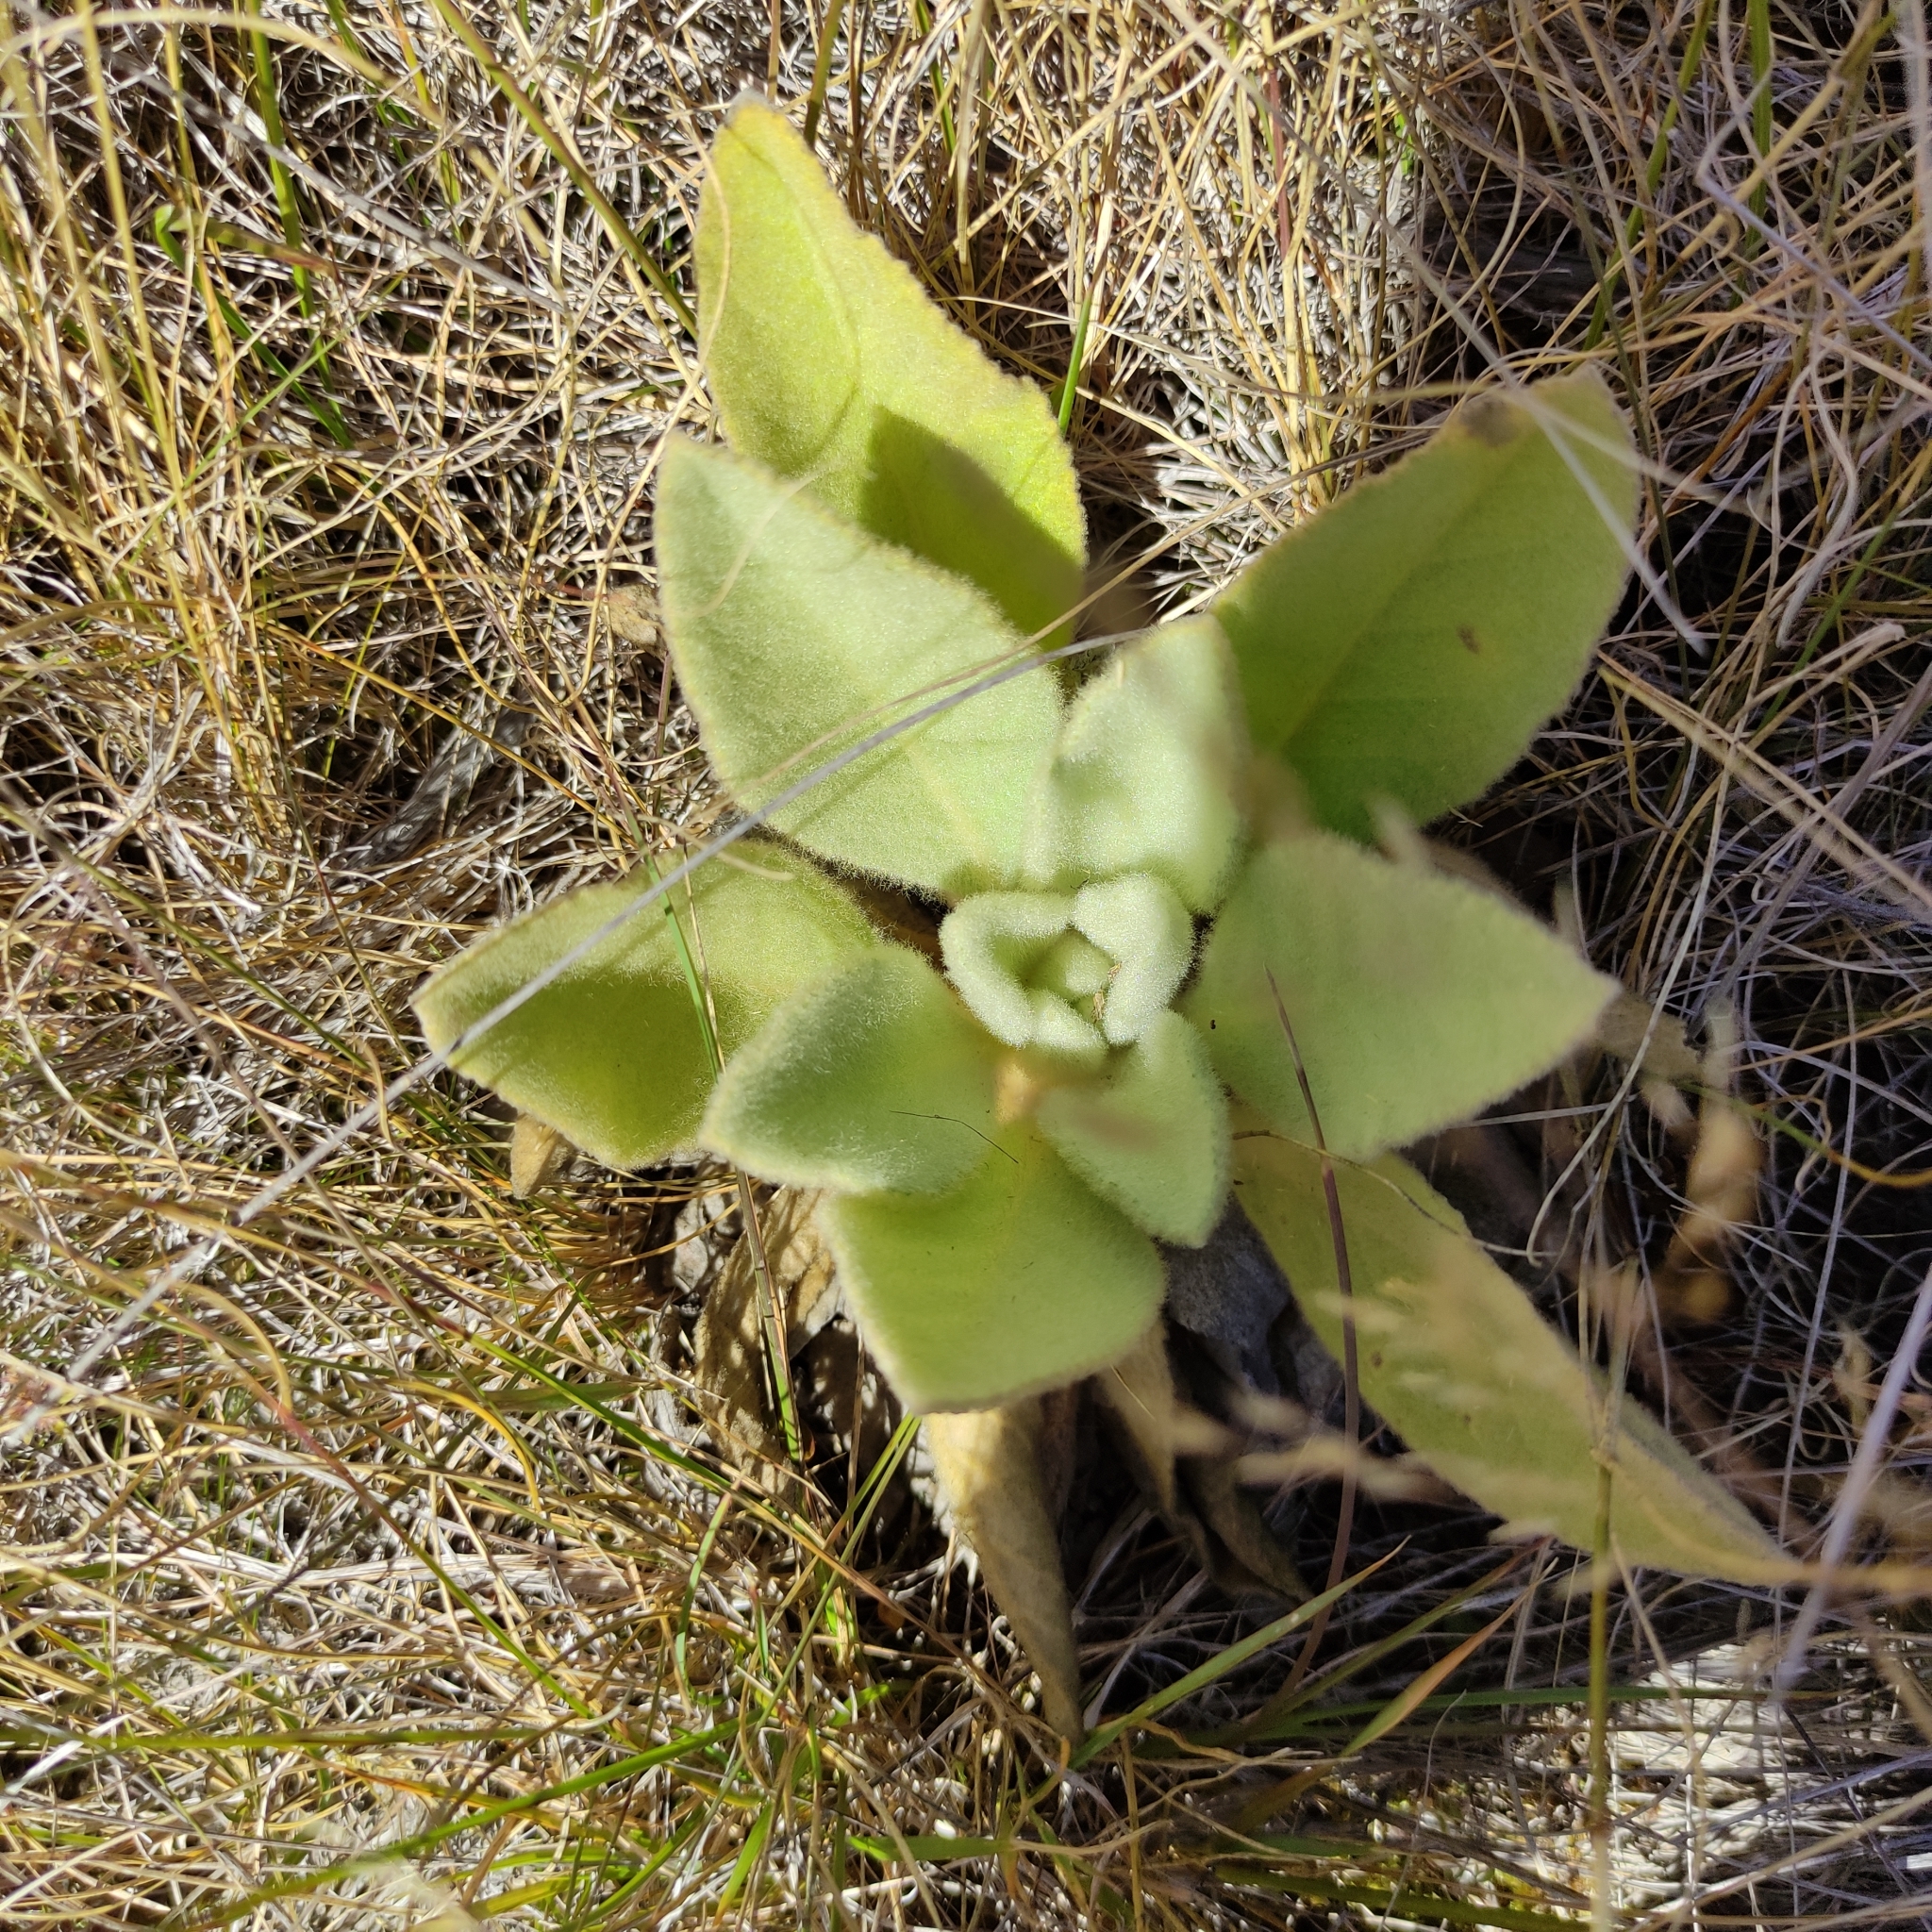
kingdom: Plantae
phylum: Tracheophyta
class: Magnoliopsida
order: Lamiales
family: Scrophulariaceae
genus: Verbascum
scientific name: Verbascum thapsus
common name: Common mullein
